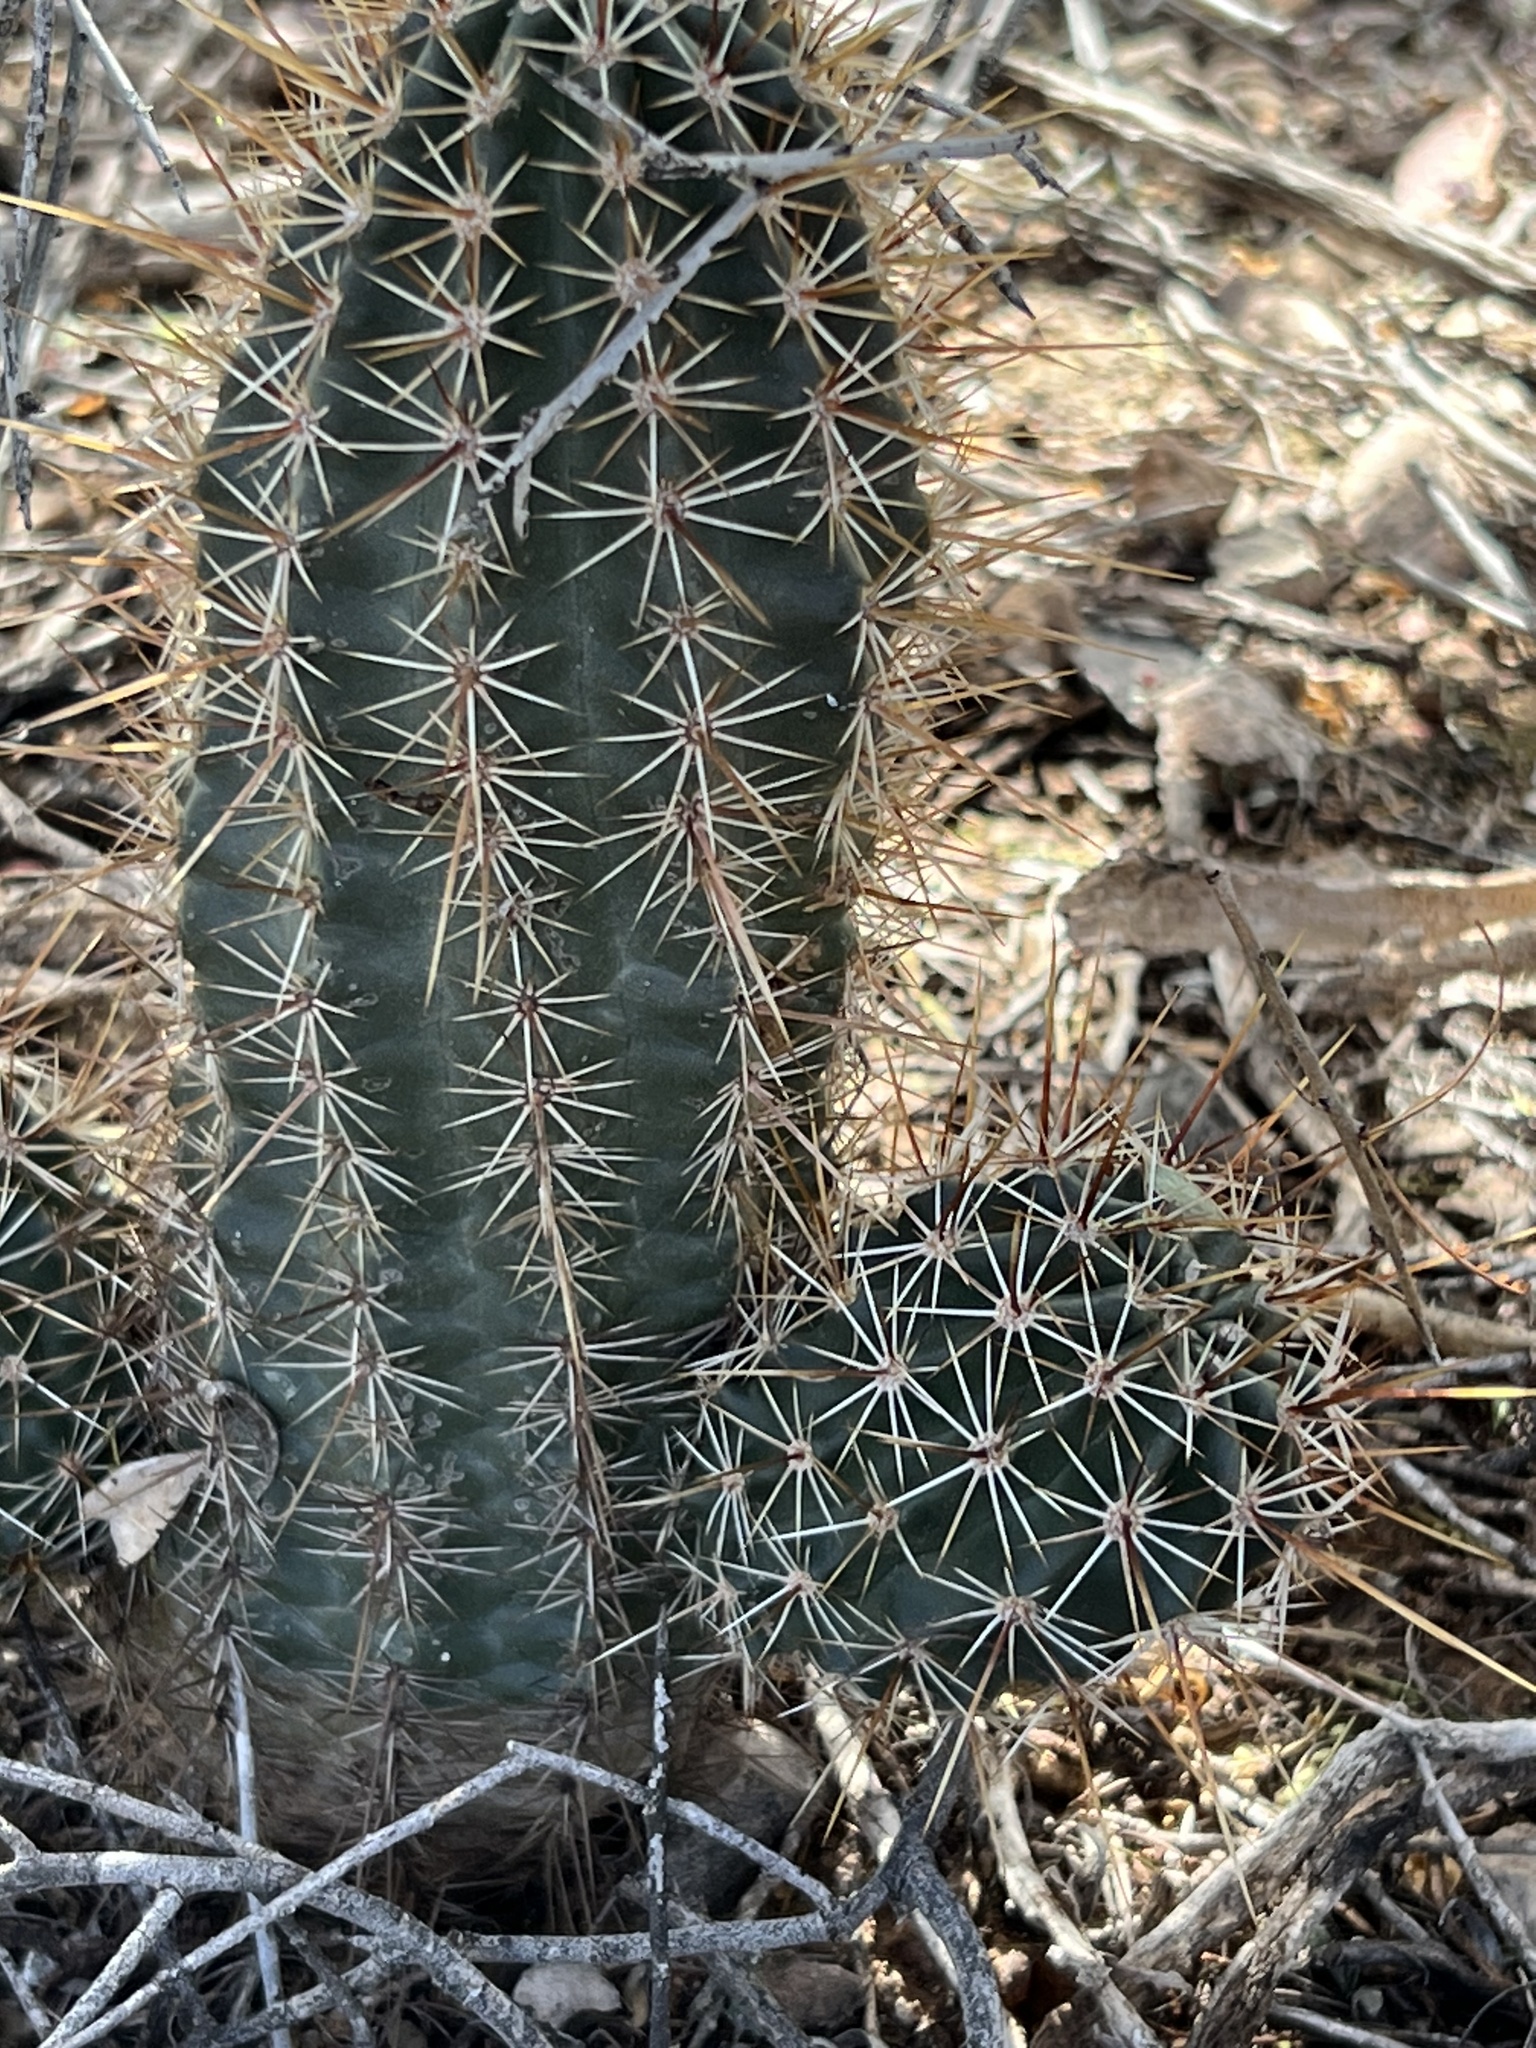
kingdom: Plantae
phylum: Tracheophyta
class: Magnoliopsida
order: Caryophyllales
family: Cactaceae
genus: Echinocereus
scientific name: Echinocereus fasciculatus
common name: Bundle hedgehog
